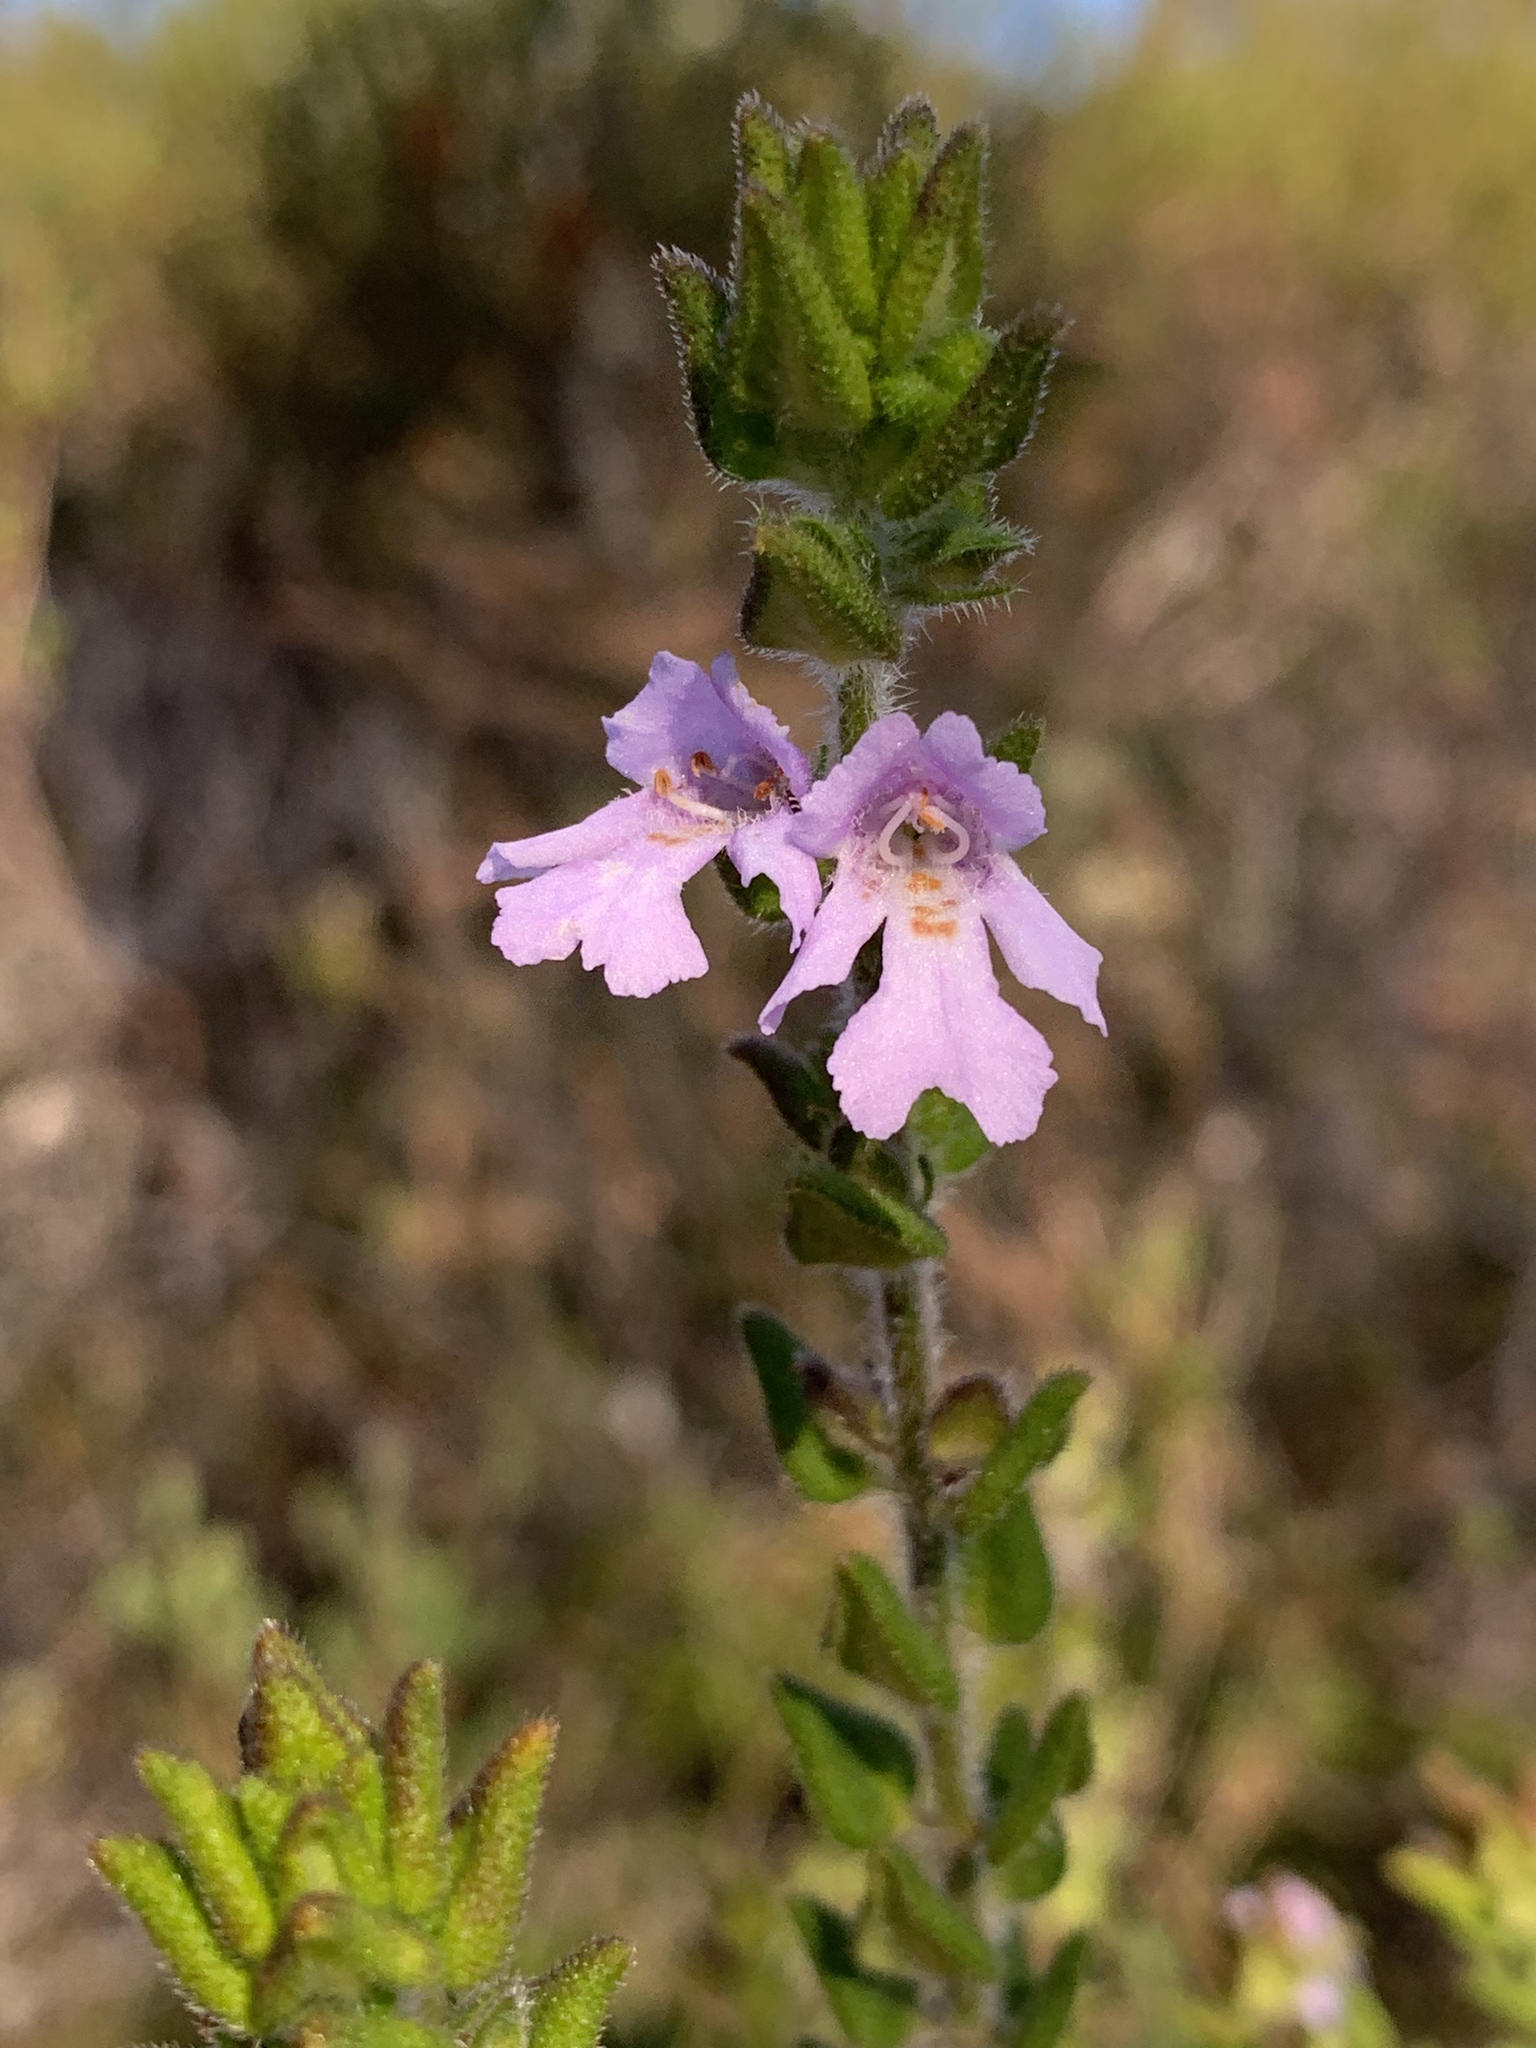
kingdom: Plantae
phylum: Tracheophyta
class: Magnoliopsida
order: Lamiales
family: Lamiaceae
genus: Prostanthera
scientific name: Prostanthera densa
